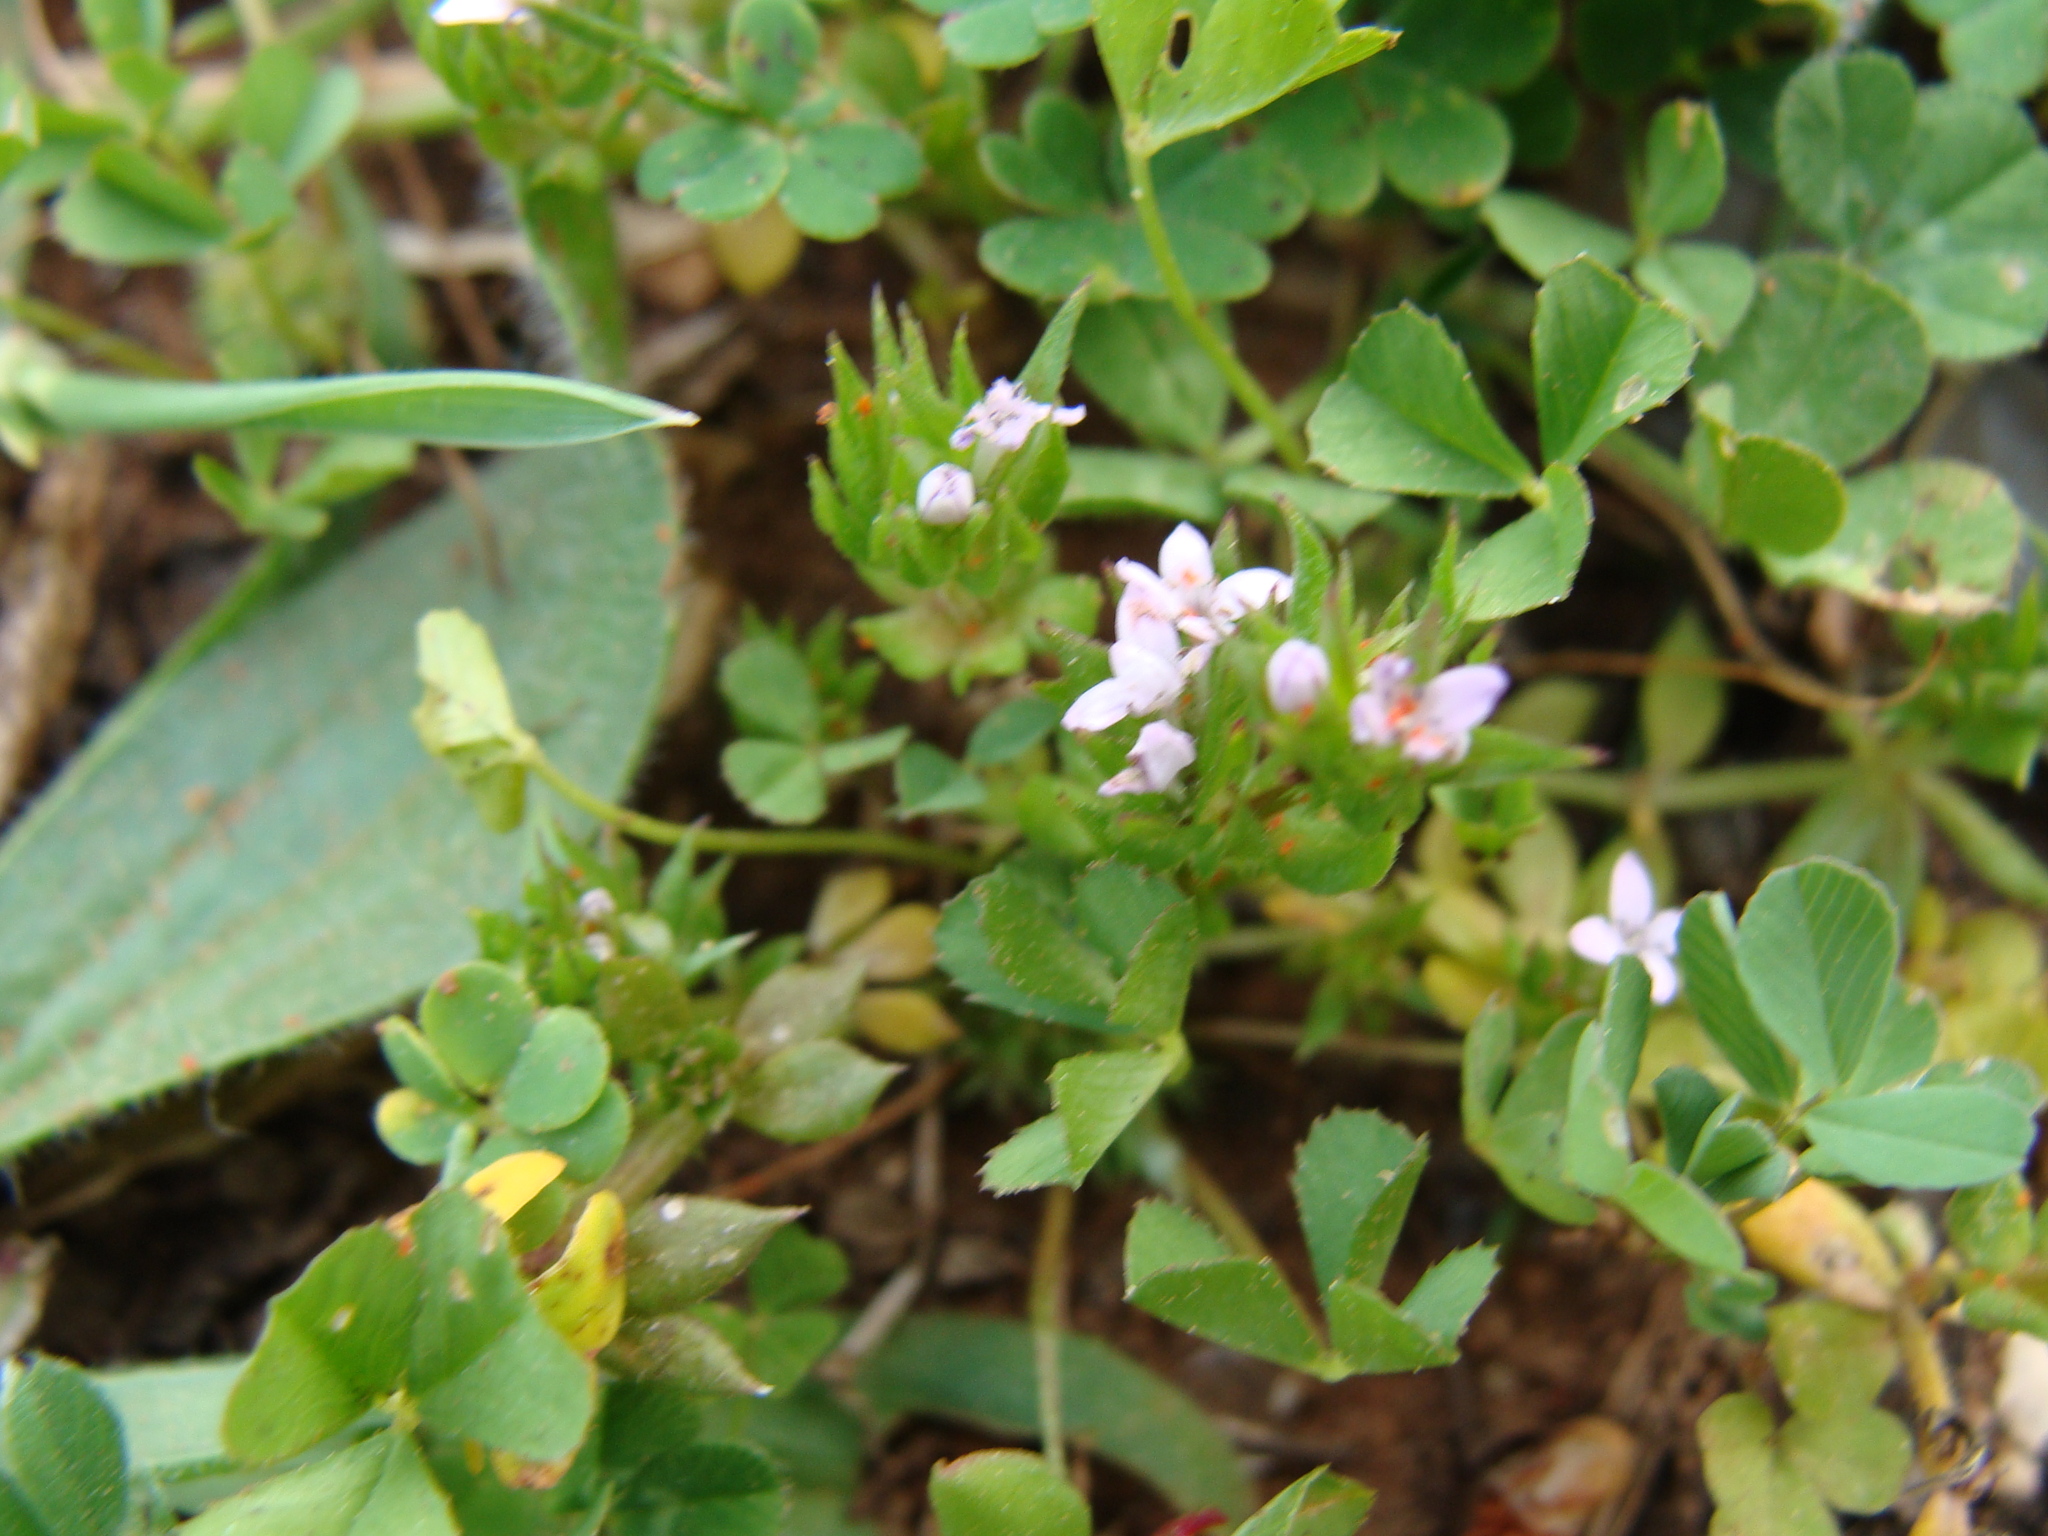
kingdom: Plantae
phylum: Tracheophyta
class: Magnoliopsida
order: Gentianales
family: Rubiaceae
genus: Sherardia
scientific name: Sherardia arvensis
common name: Field madder
